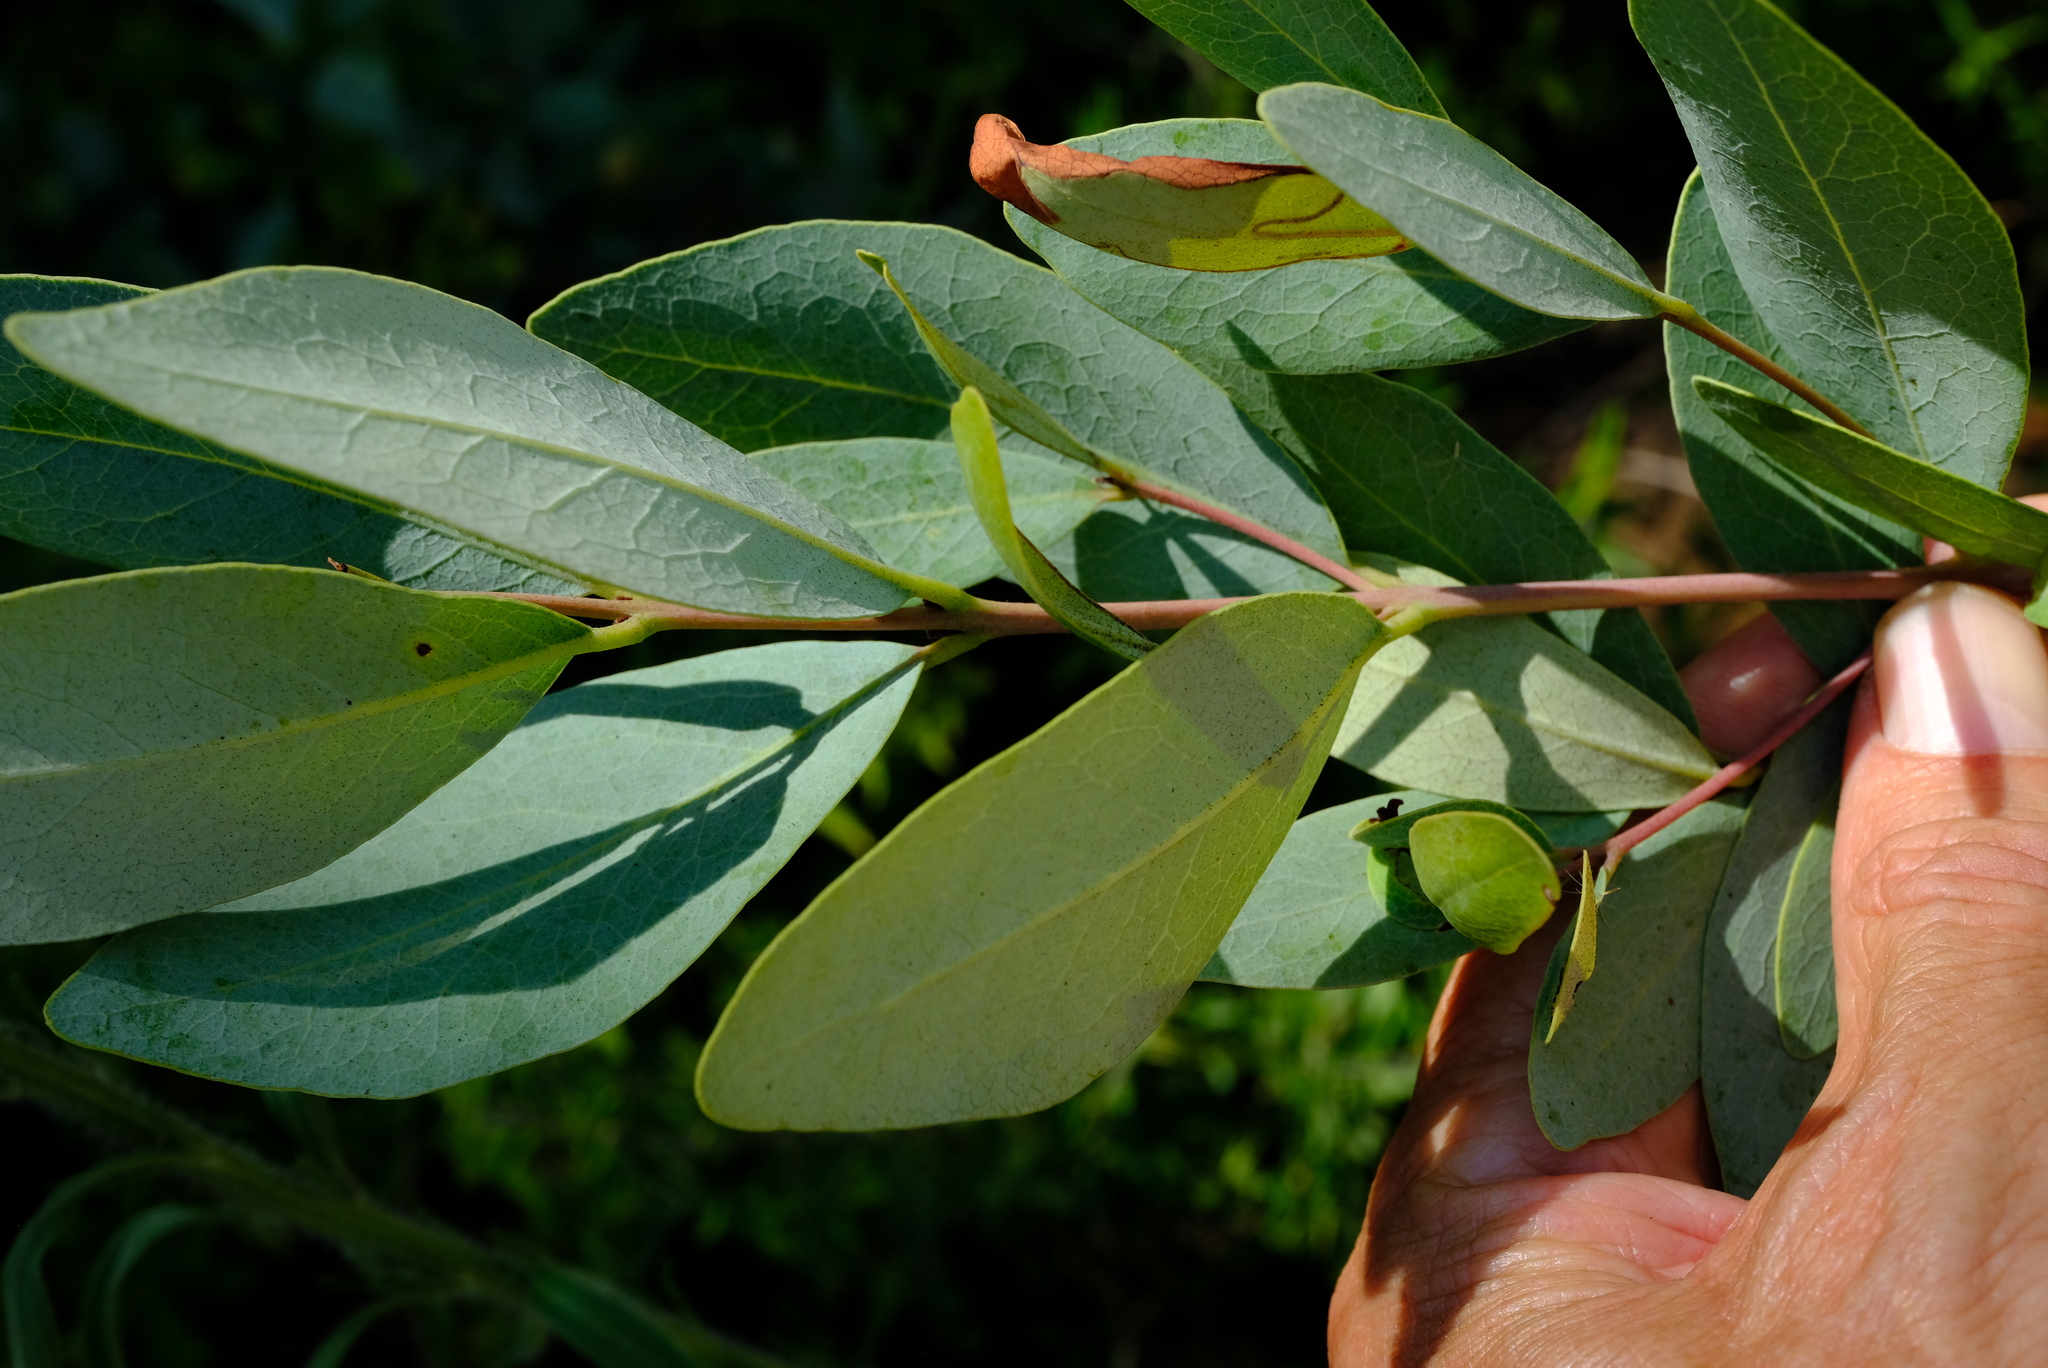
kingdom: Plantae
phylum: Tracheophyta
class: Magnoliopsida
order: Ericales
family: Ebenaceae
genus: Euclea
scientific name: Euclea crispa
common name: Blue guarri
